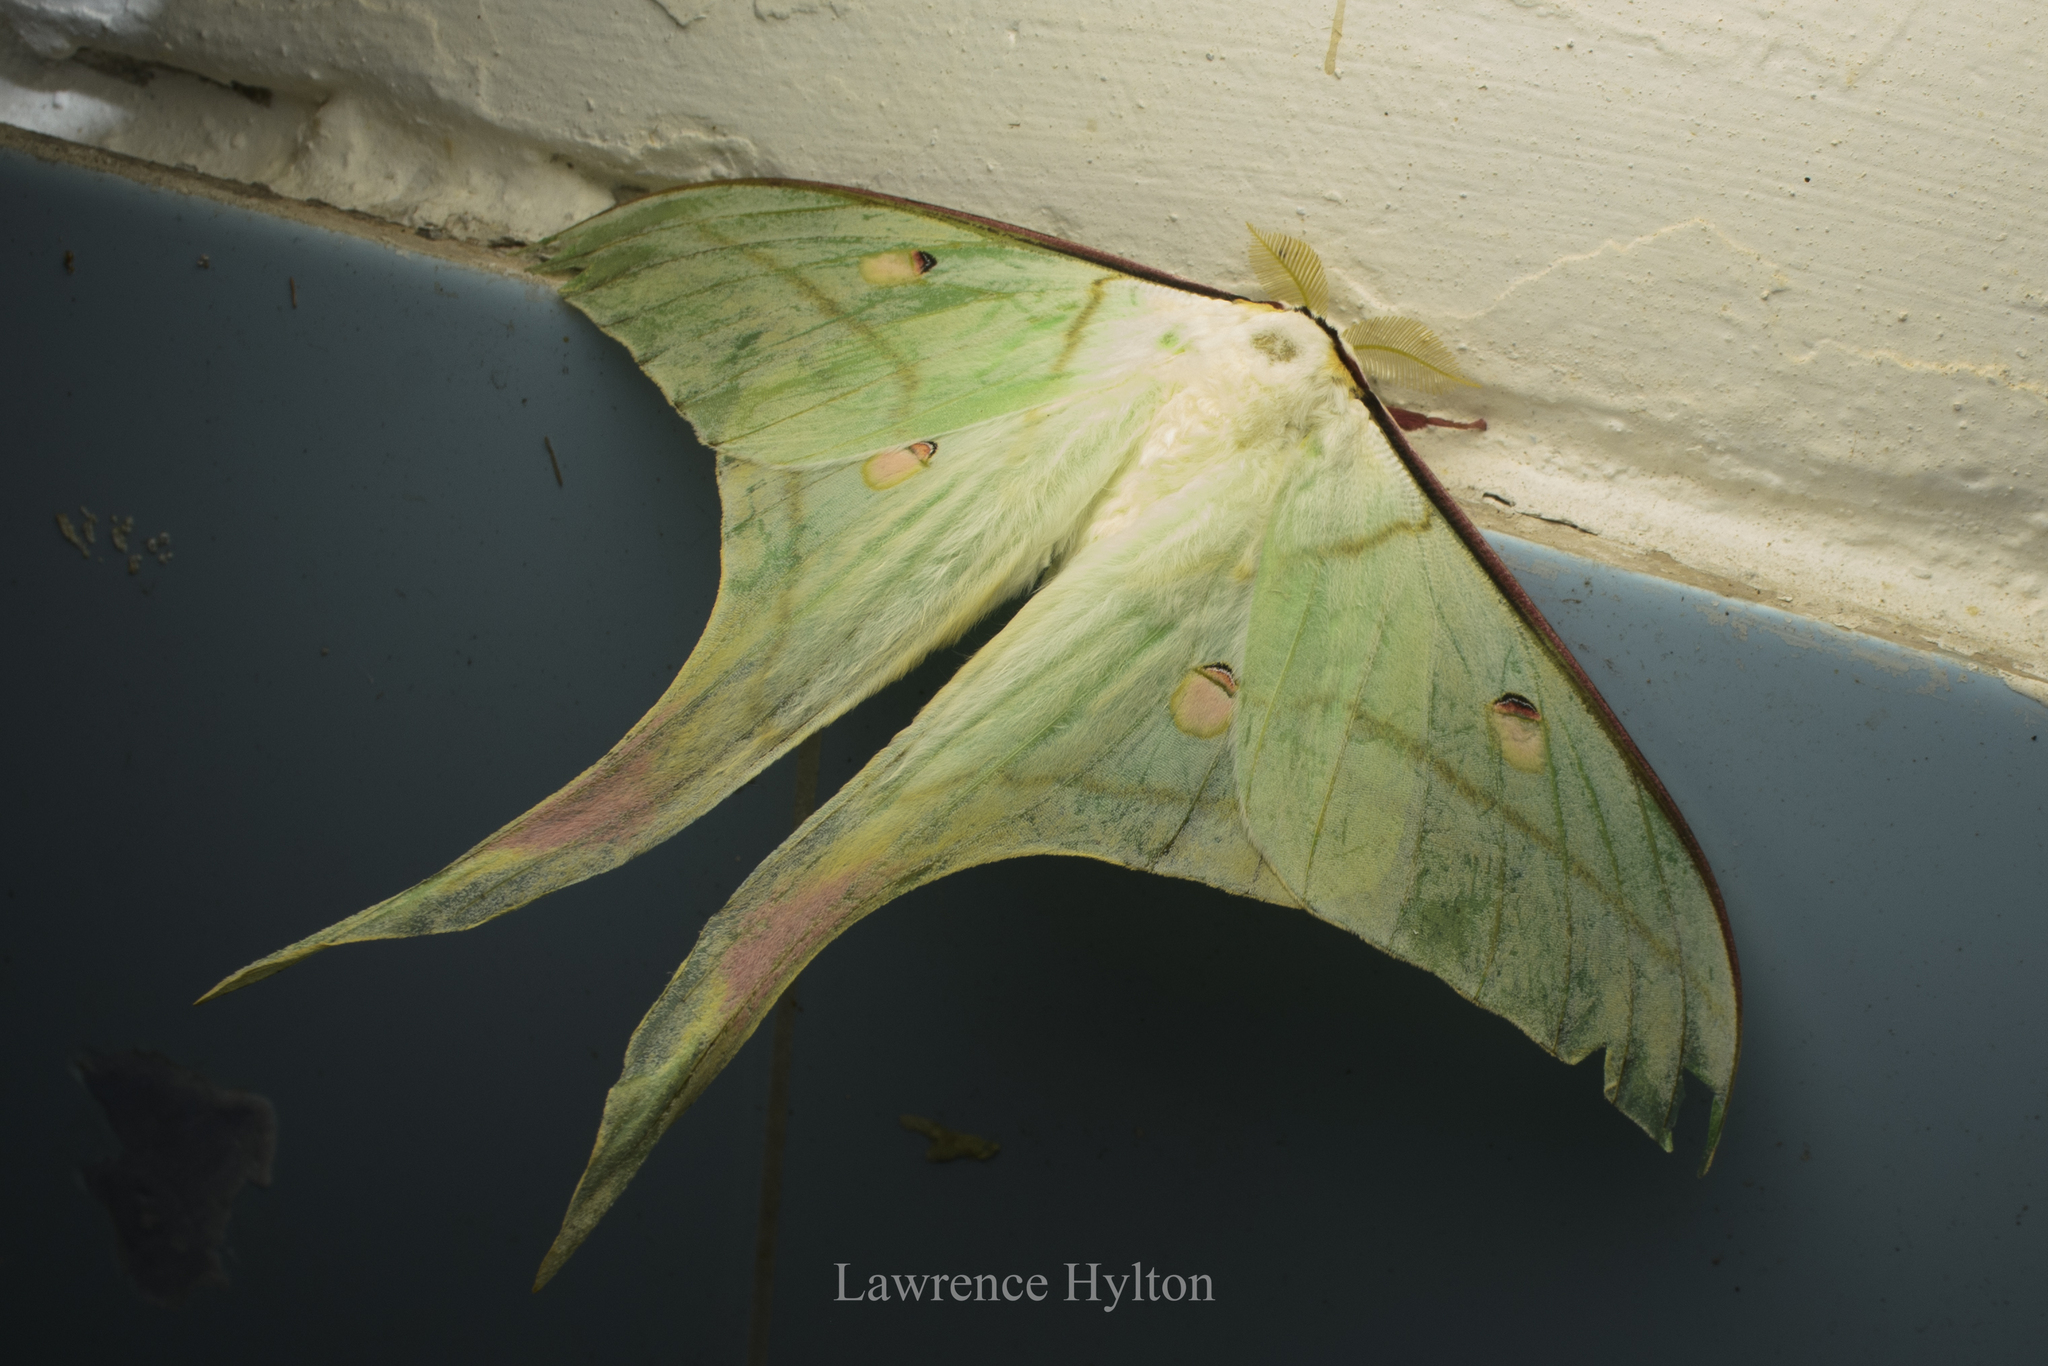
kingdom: Animalia
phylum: Arthropoda
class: Insecta
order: Lepidoptera
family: Saturniidae
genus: Actias
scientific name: Actias ningpoana
